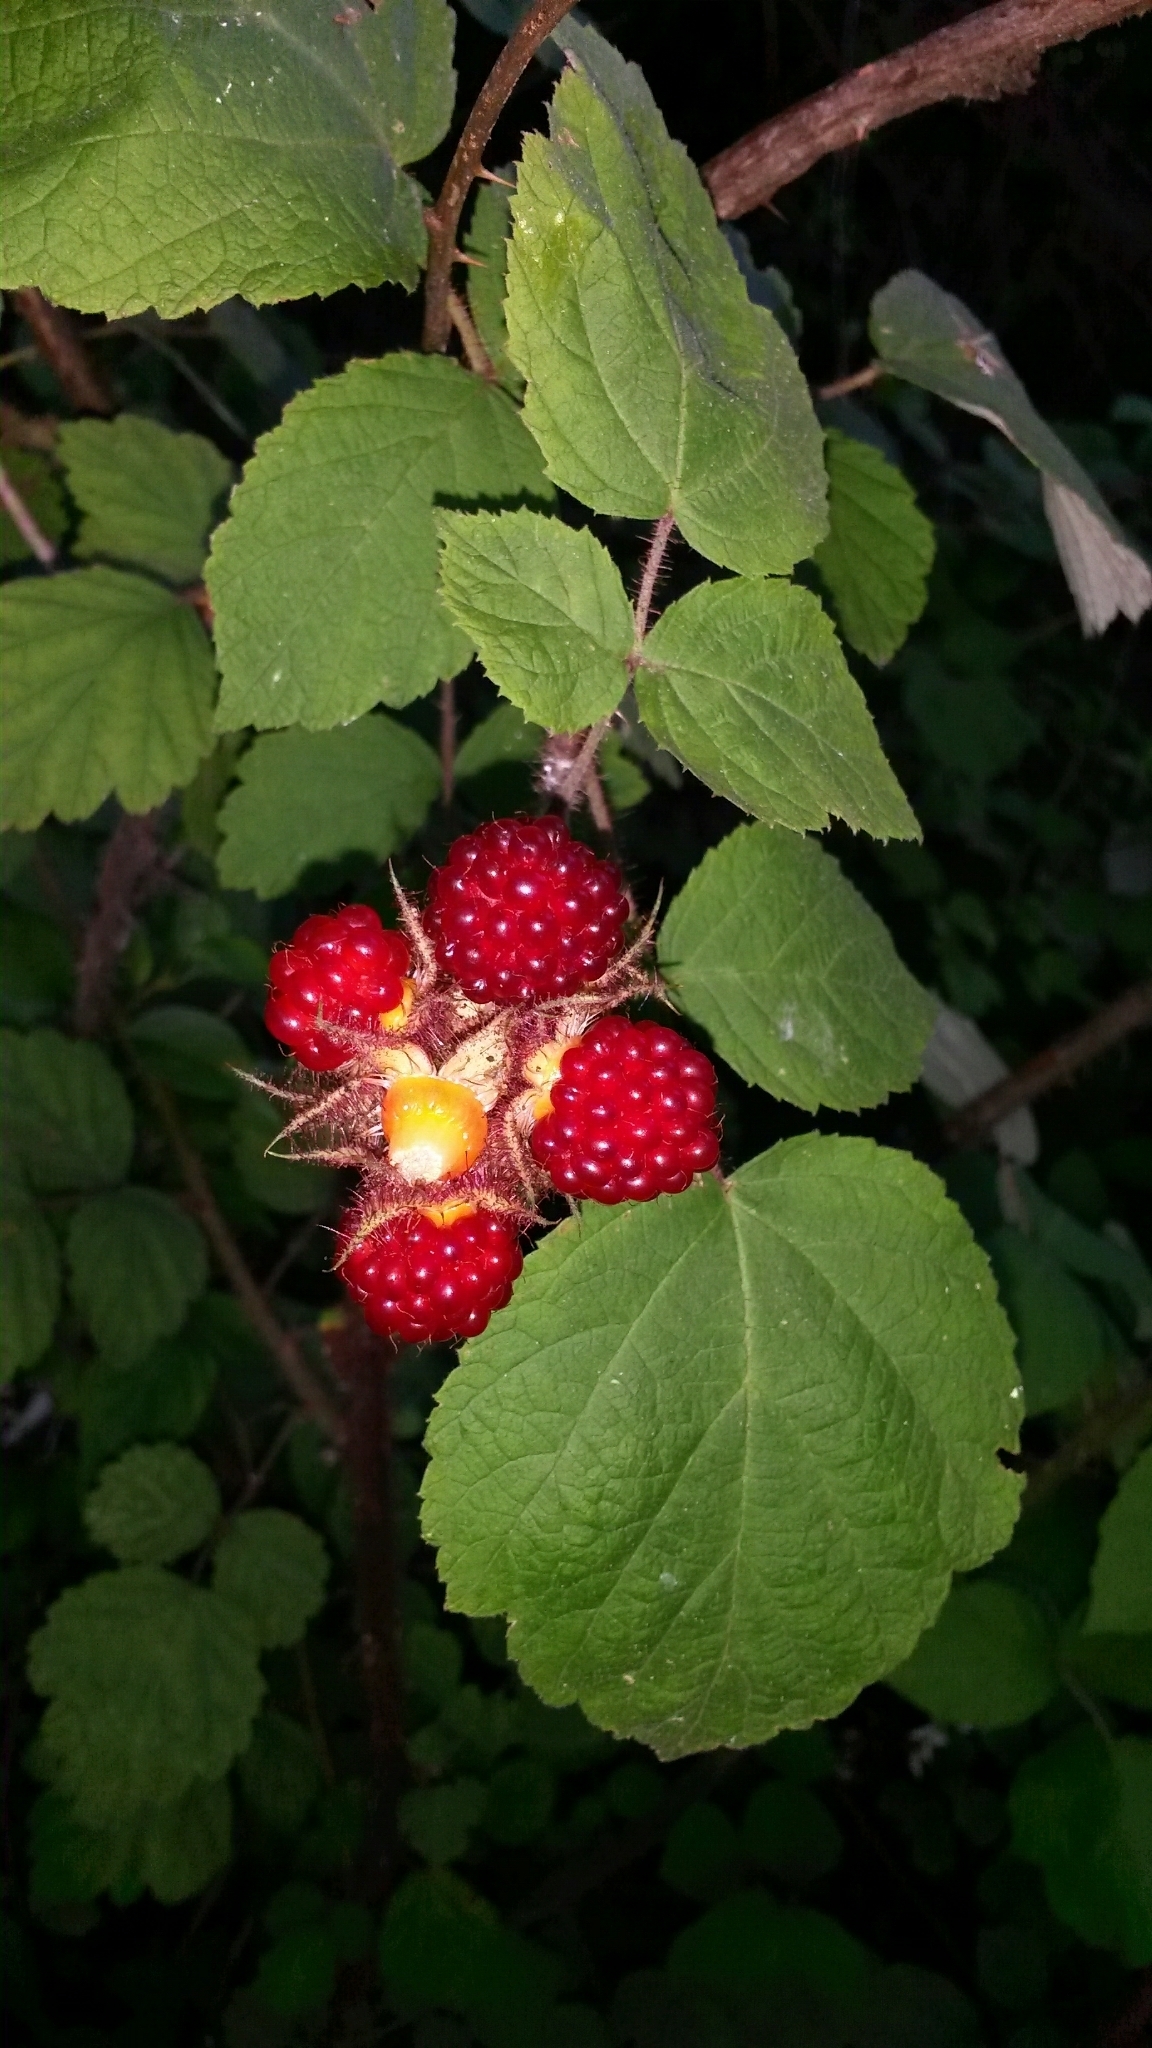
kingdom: Plantae
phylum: Tracheophyta
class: Magnoliopsida
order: Rosales
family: Rosaceae
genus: Rubus
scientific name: Rubus phoenicolasius
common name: Japanese wineberry
